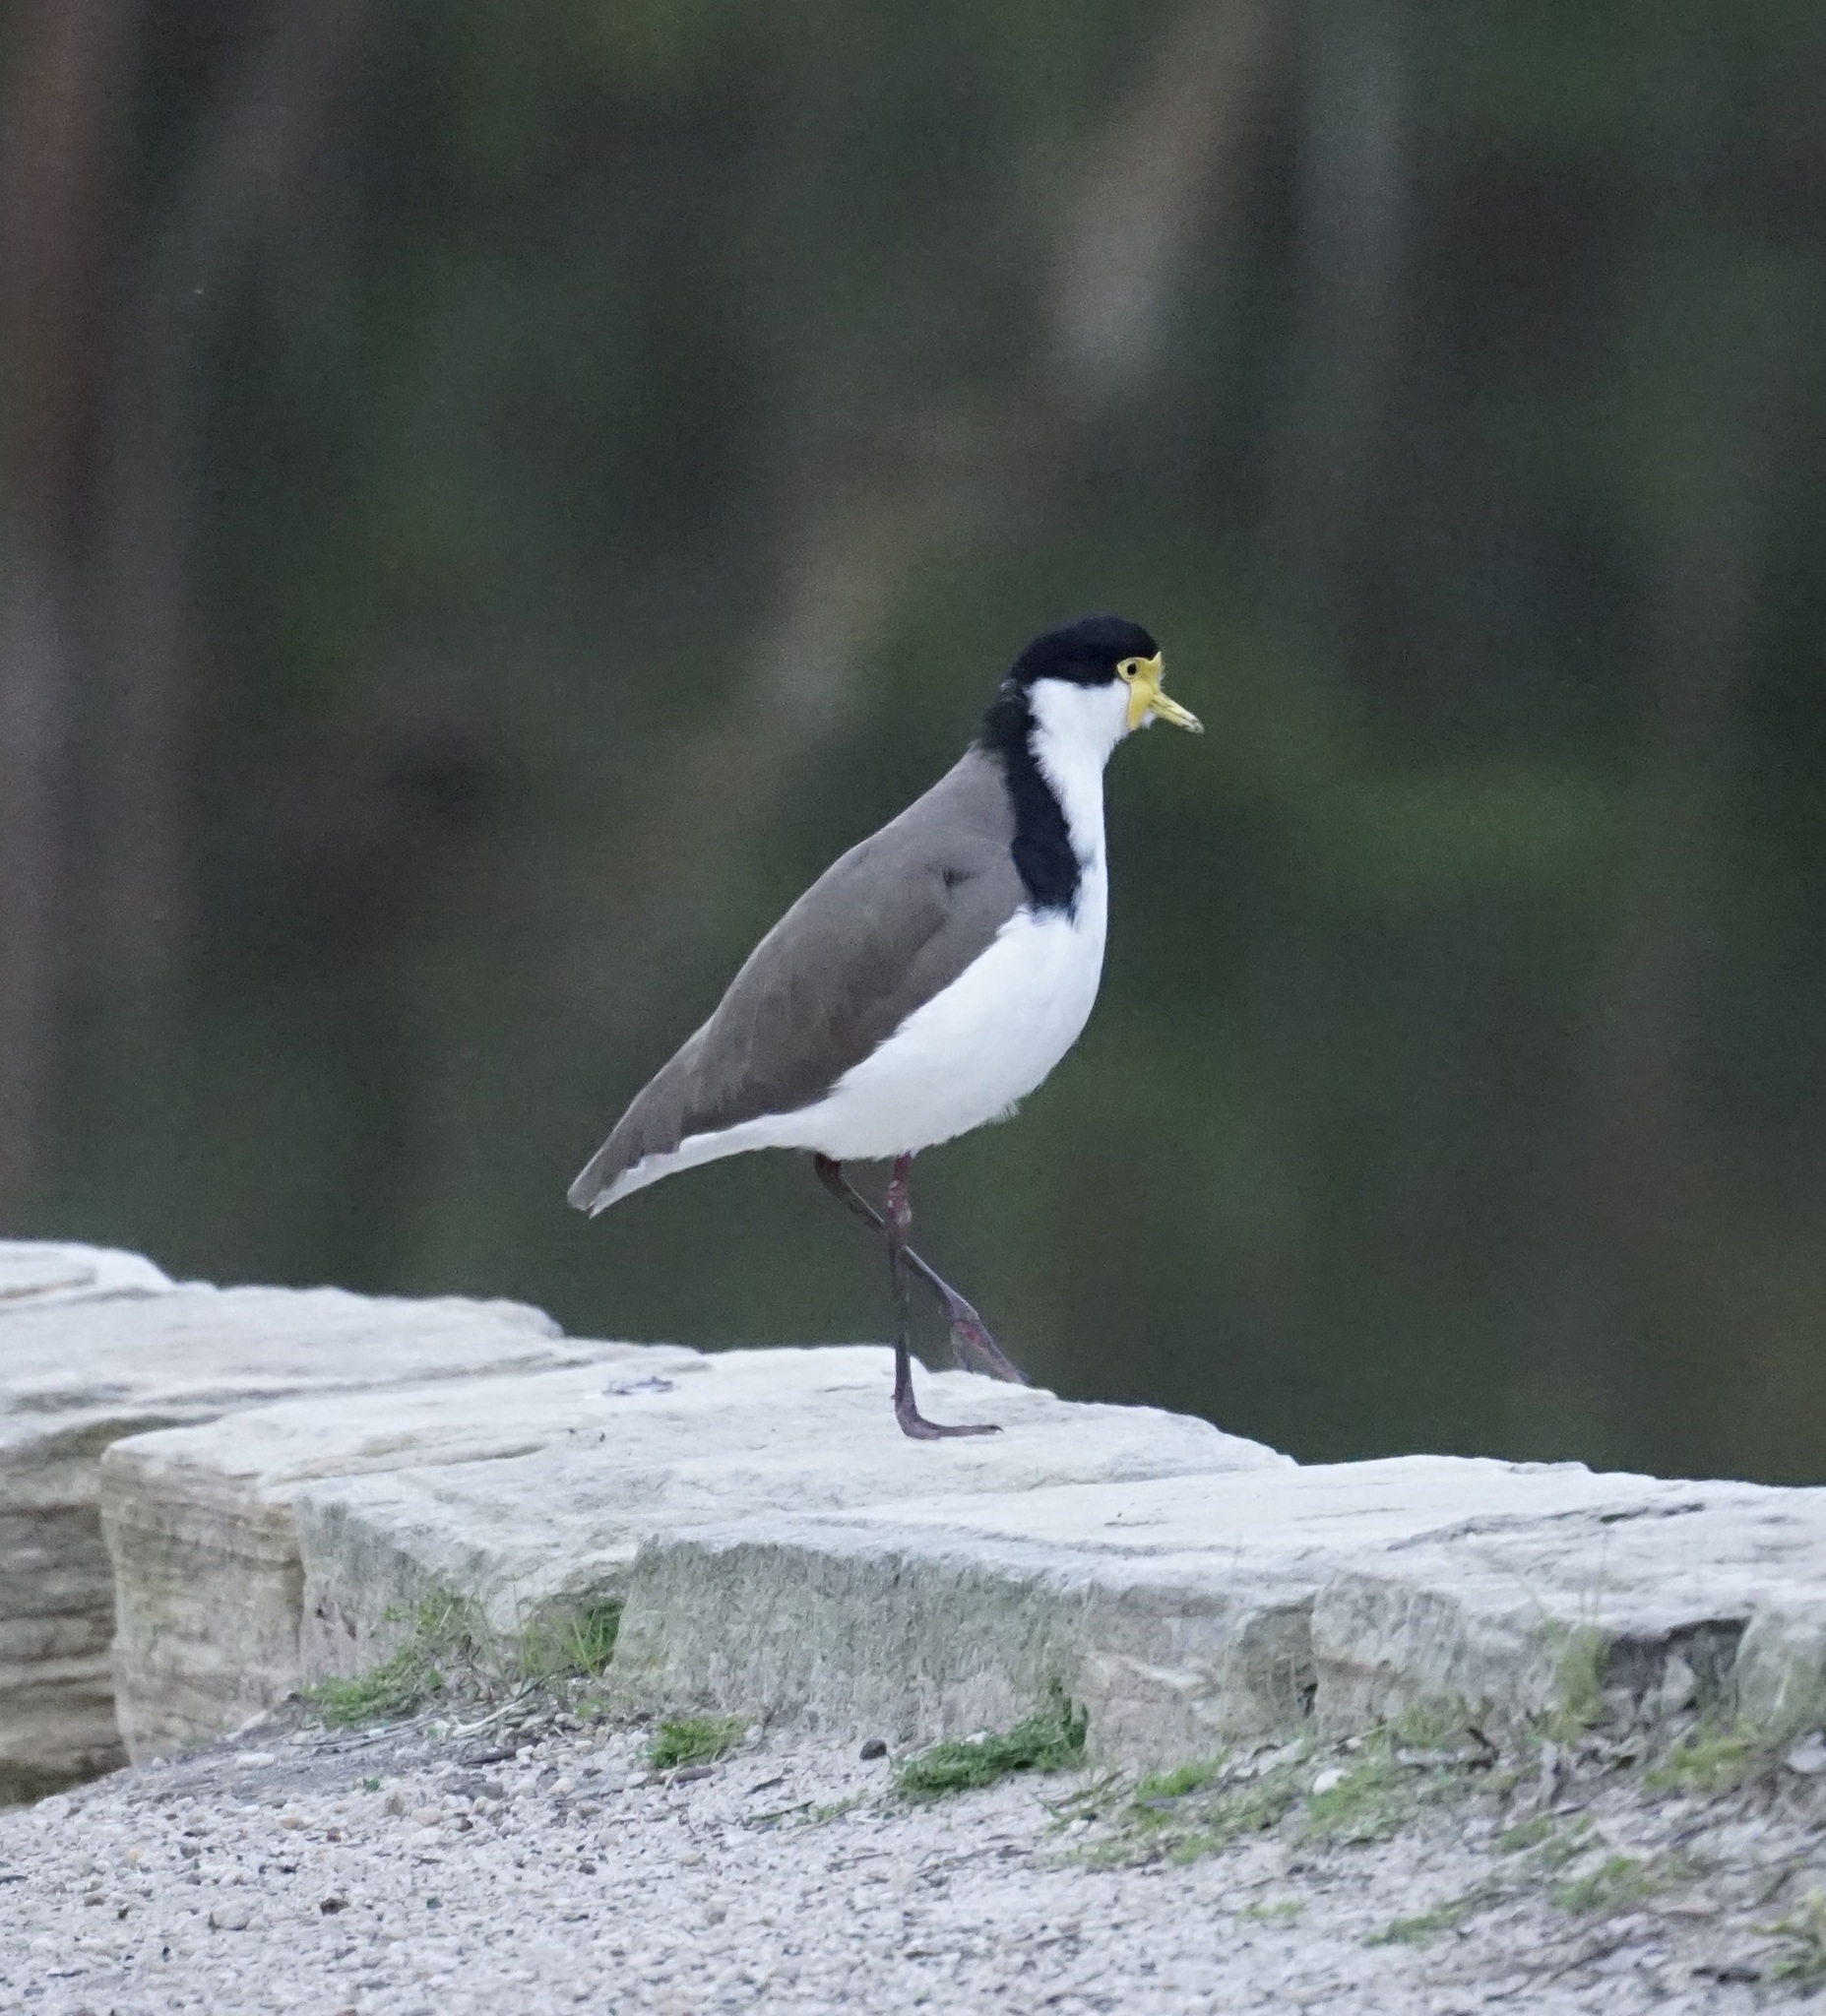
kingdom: Animalia
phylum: Chordata
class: Aves
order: Charadriiformes
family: Charadriidae
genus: Vanellus
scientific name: Vanellus miles
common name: Masked lapwing
